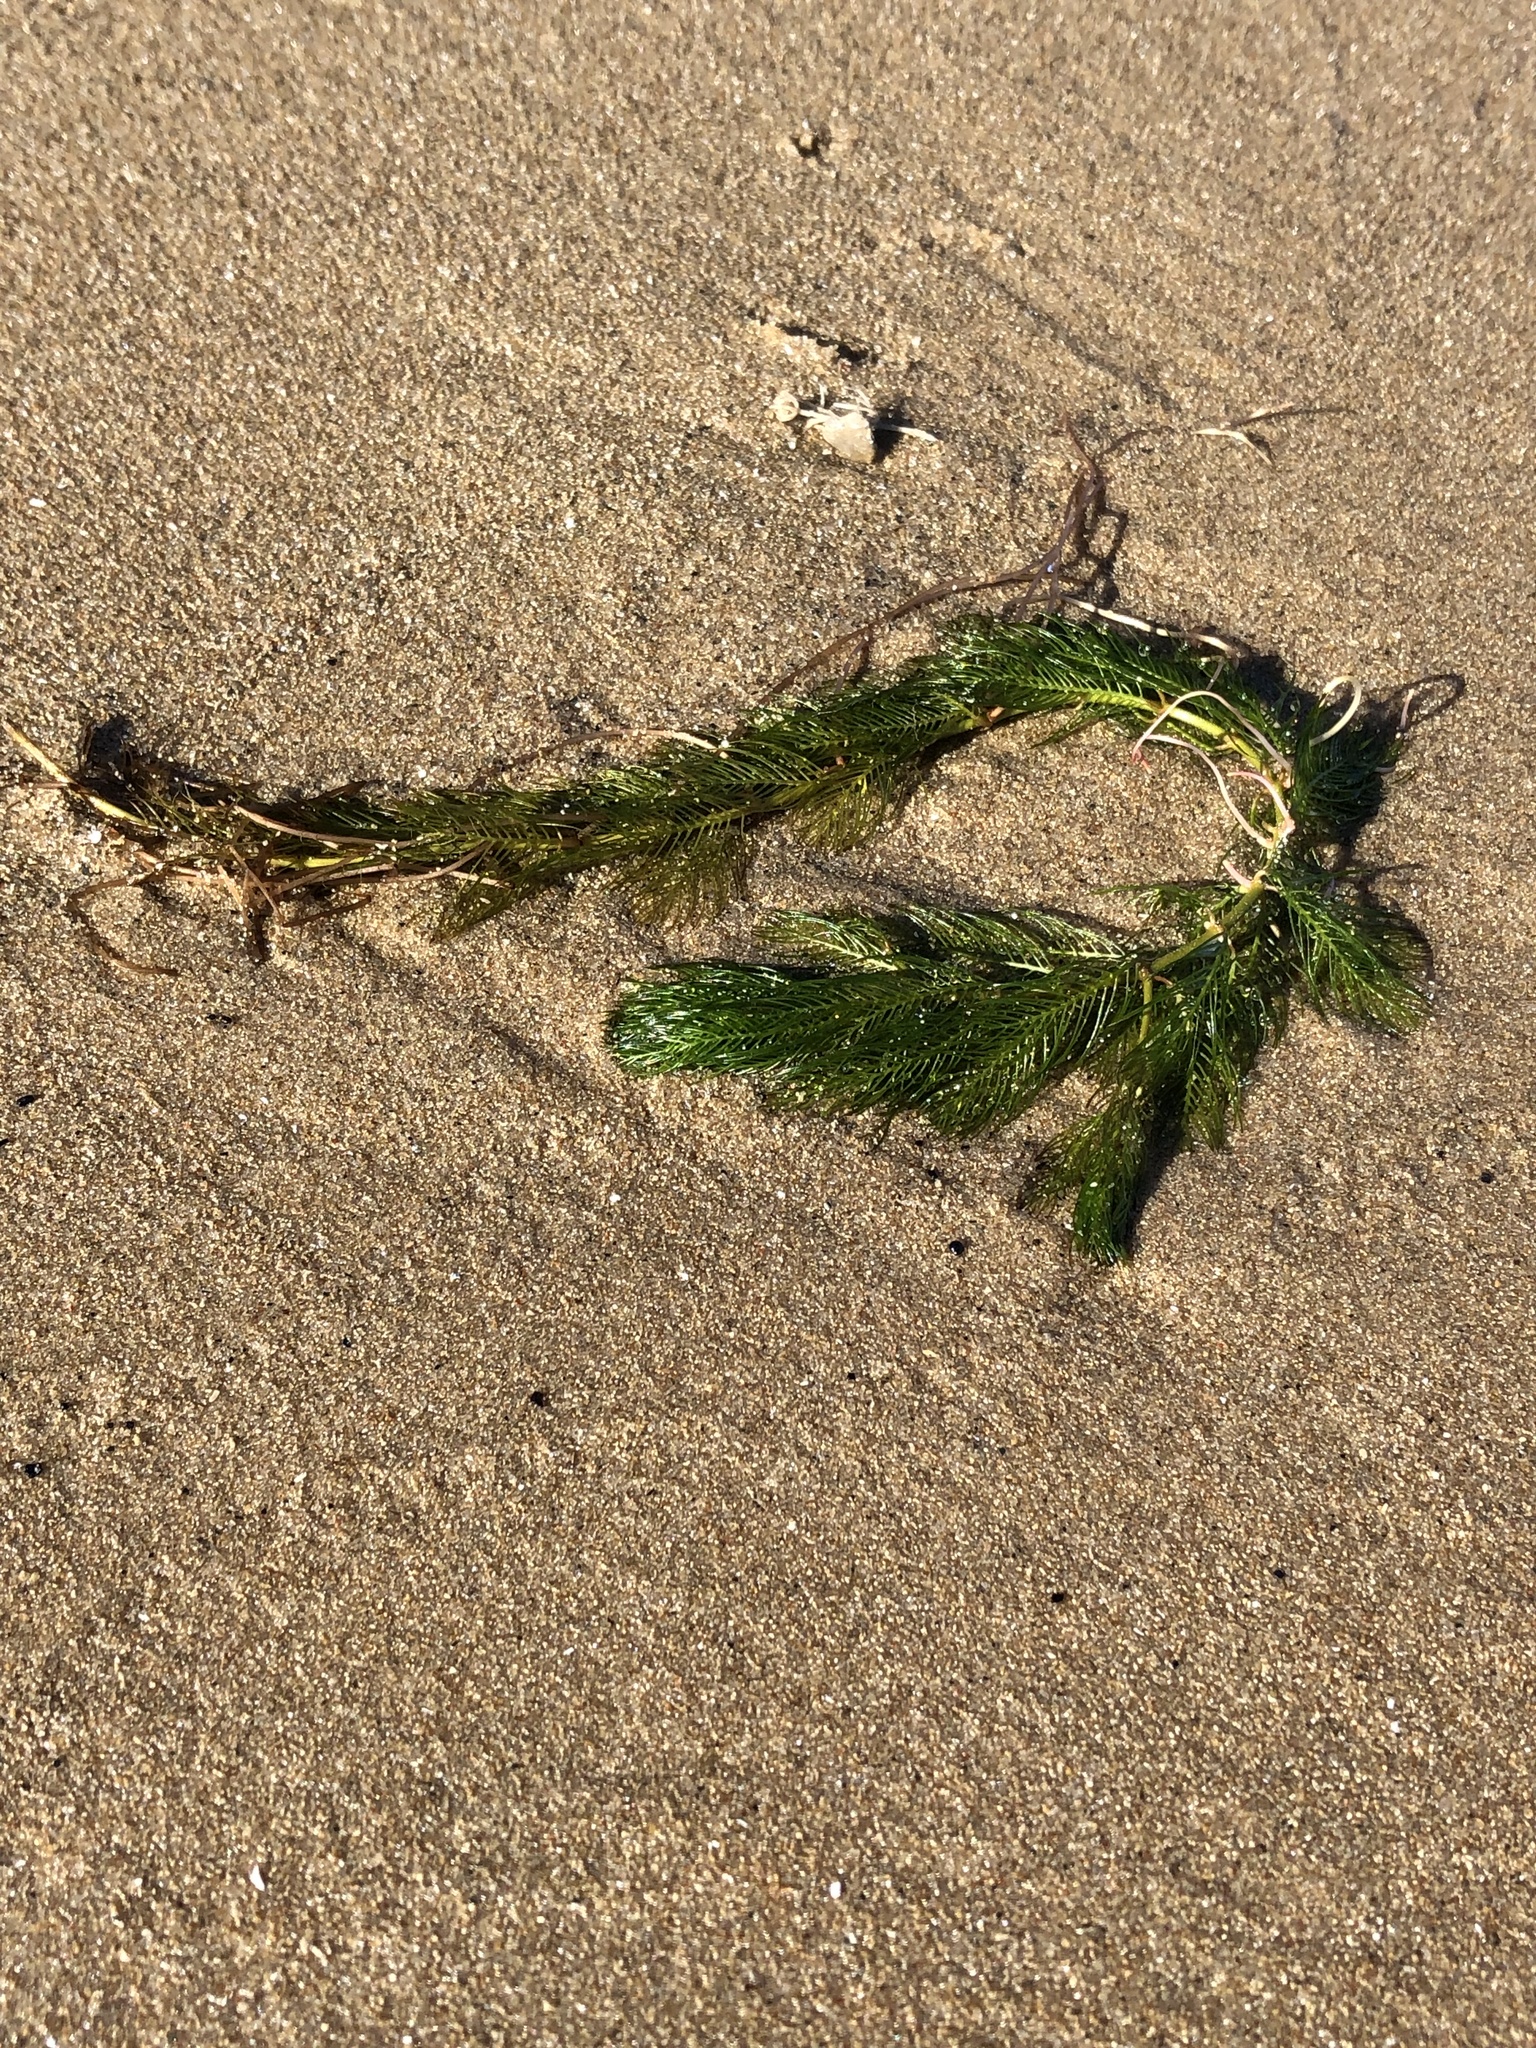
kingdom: Plantae
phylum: Tracheophyta
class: Magnoliopsida
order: Saxifragales
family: Haloragaceae
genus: Myriophyllum
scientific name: Myriophyllum spicatum
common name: Spiked water-milfoil
